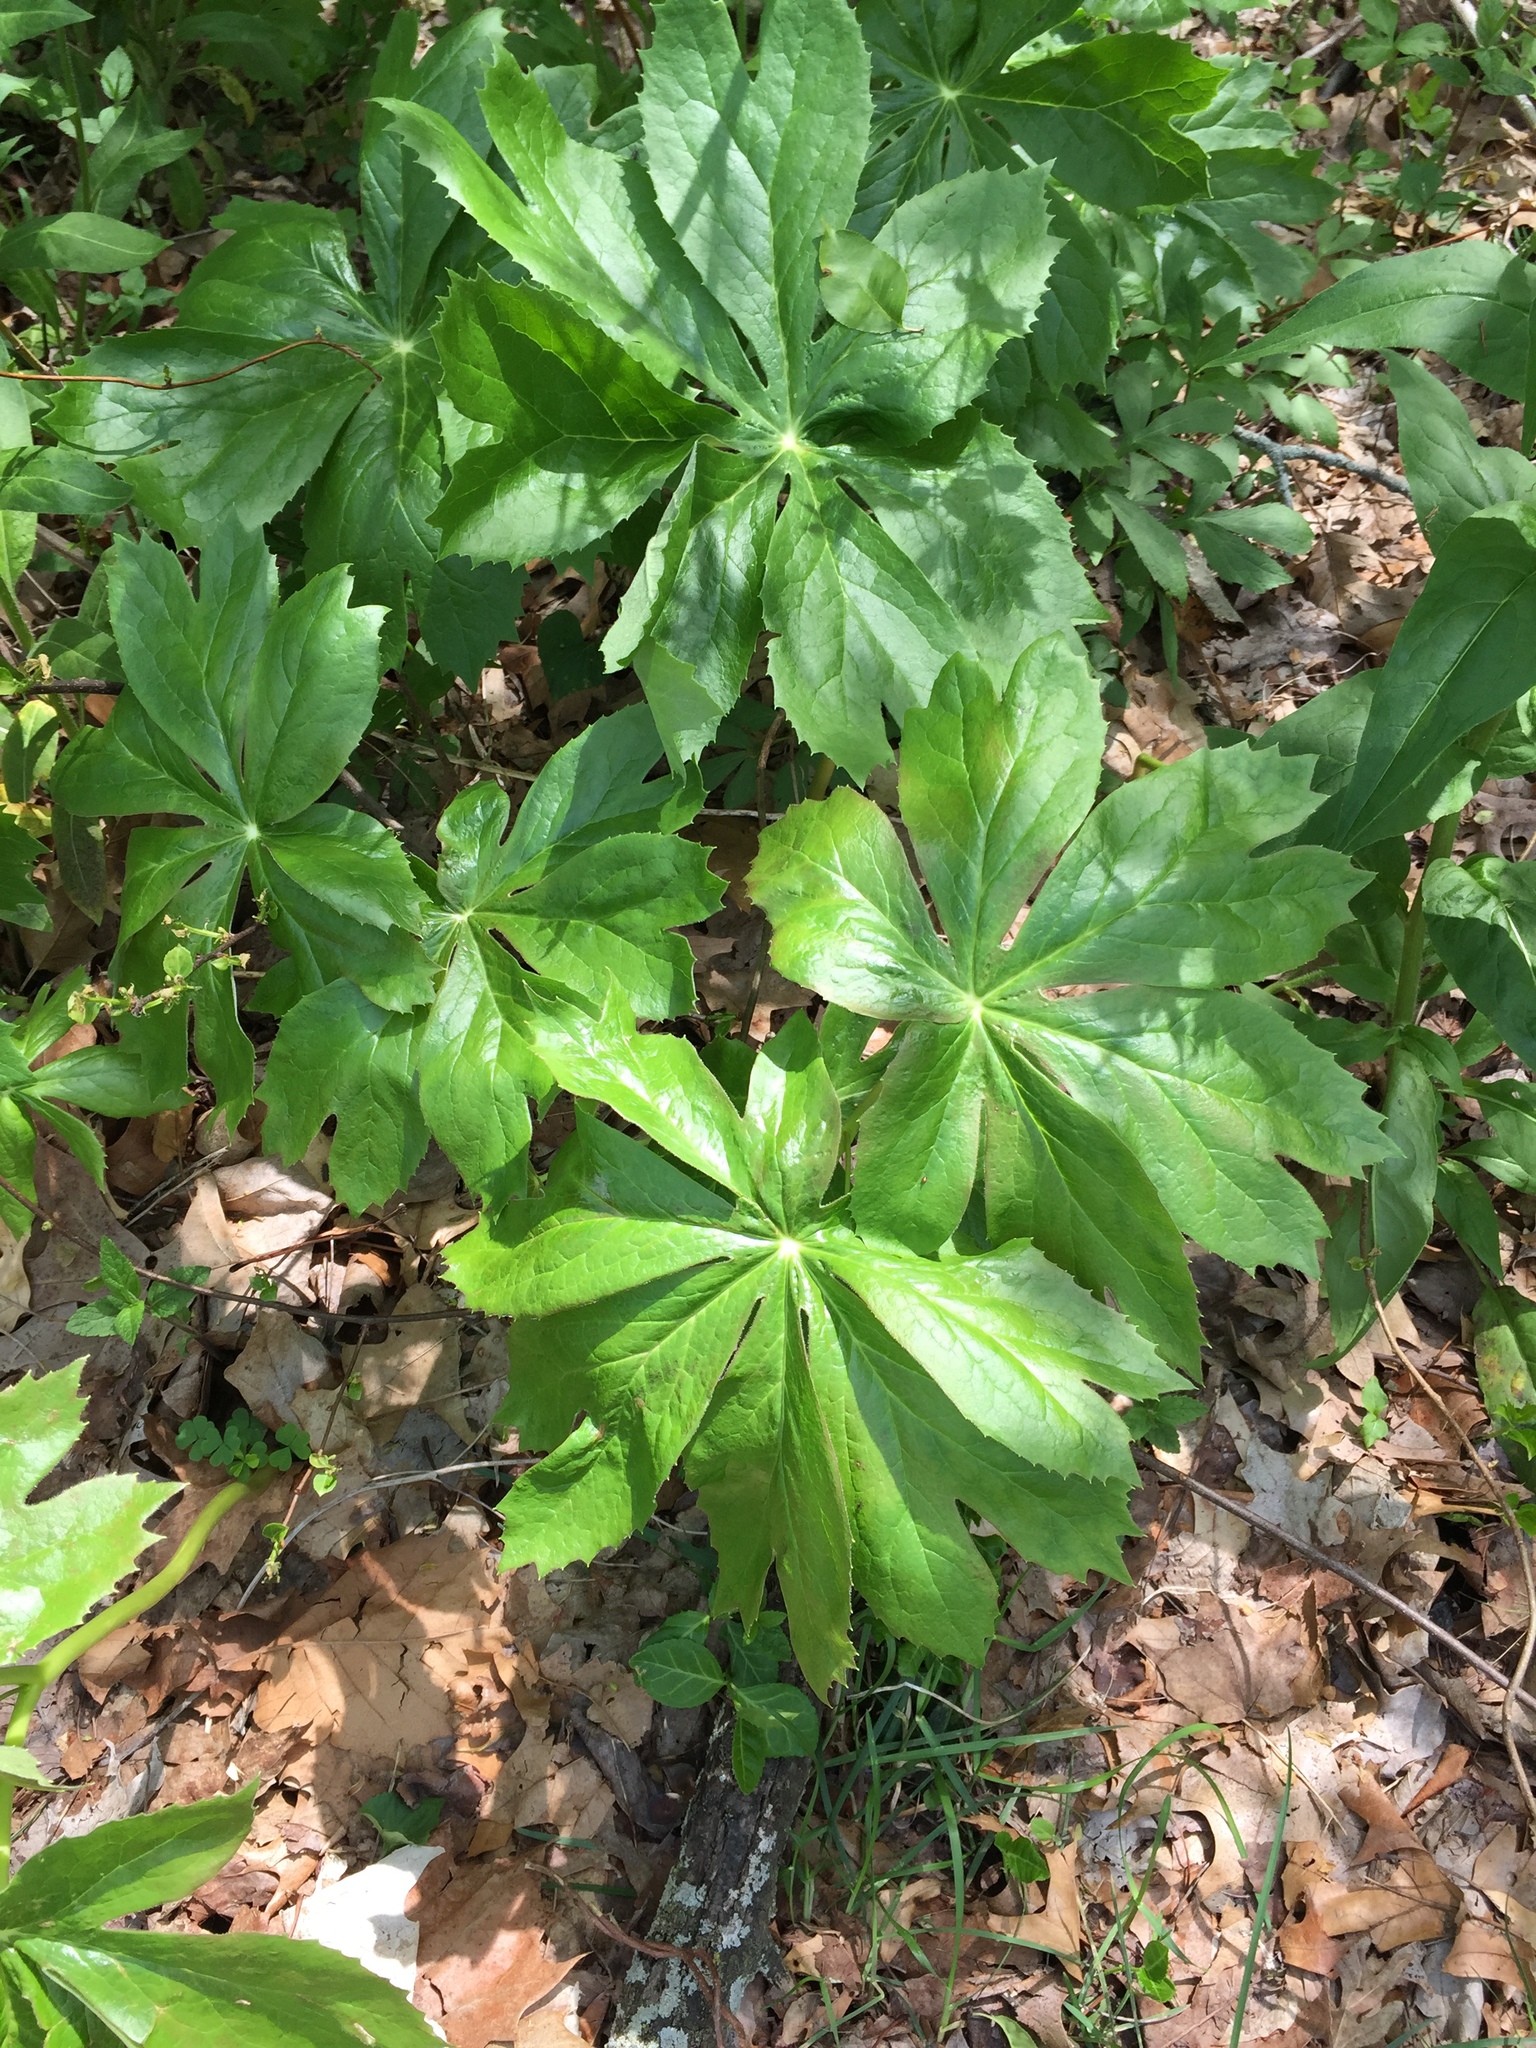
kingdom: Plantae
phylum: Tracheophyta
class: Magnoliopsida
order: Ranunculales
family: Berberidaceae
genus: Podophyllum
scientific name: Podophyllum peltatum
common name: Wild mandrake
